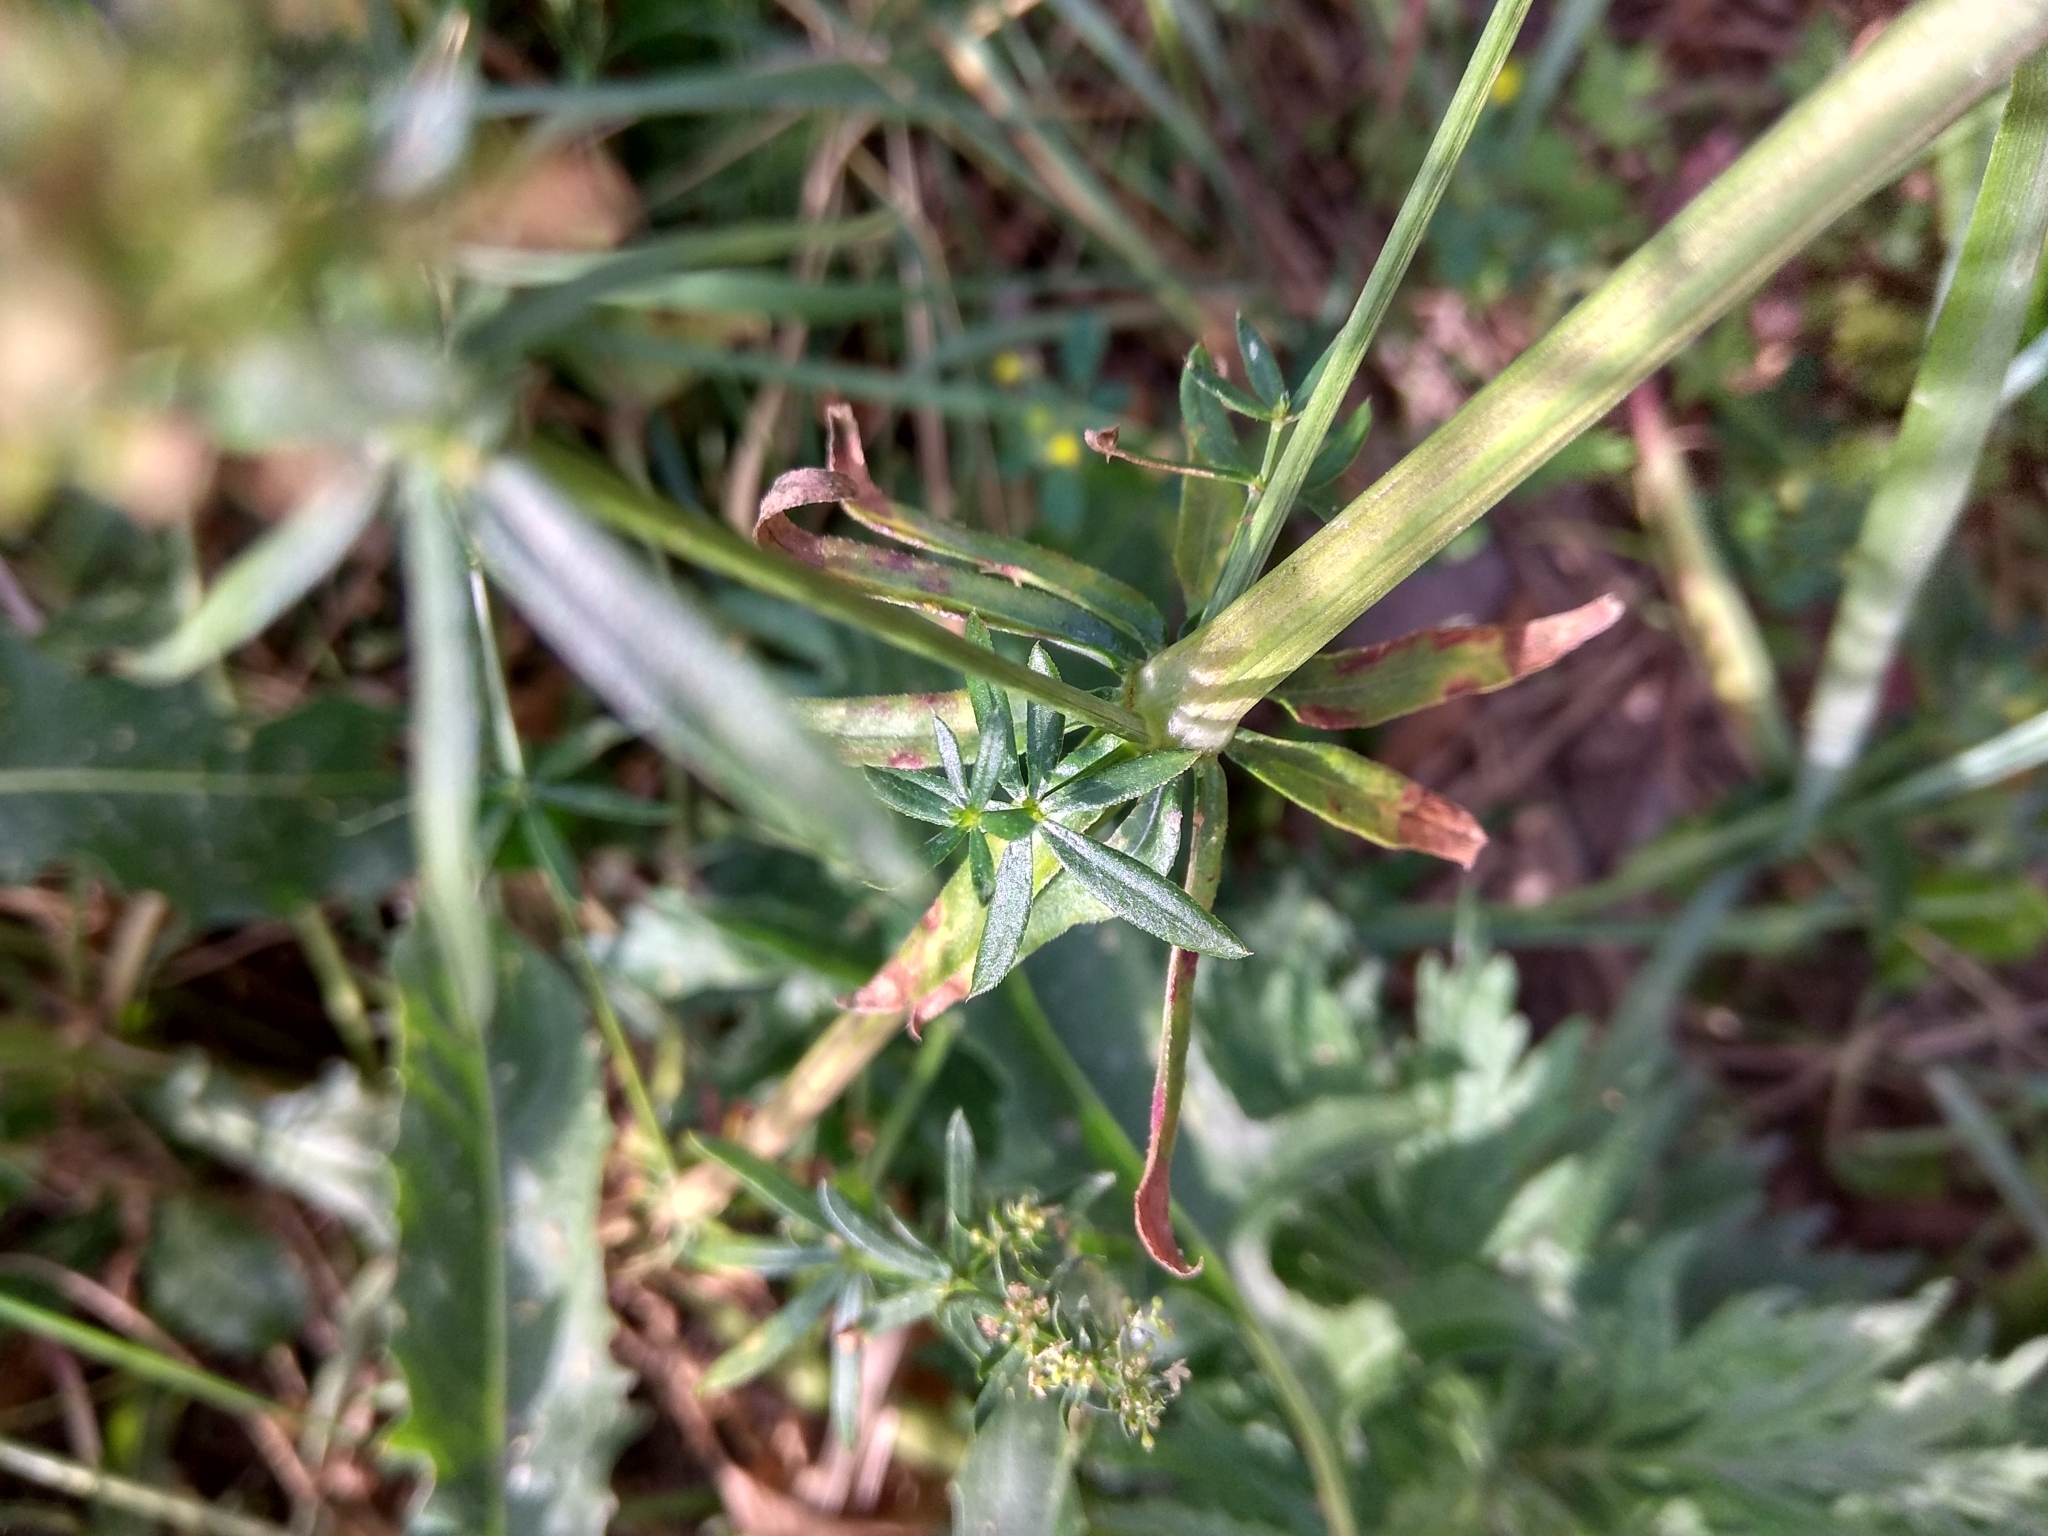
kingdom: Plantae
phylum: Tracheophyta
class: Magnoliopsida
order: Gentianales
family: Rubiaceae
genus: Galium
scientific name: Galium mollugo
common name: Hedge bedstraw
